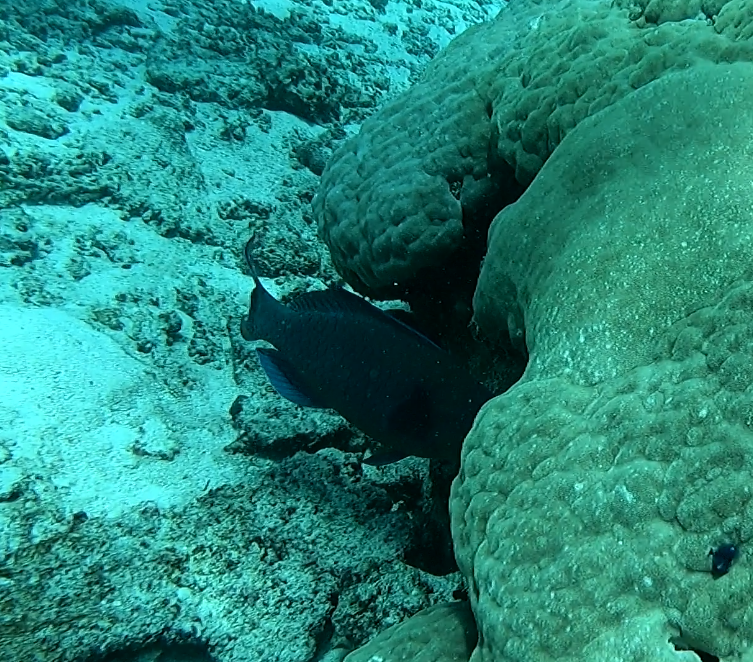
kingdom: Animalia
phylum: Chordata
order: Perciformes
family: Scaridae
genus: Scarus
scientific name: Scarus altipinnis
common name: Minifin parrotfish
